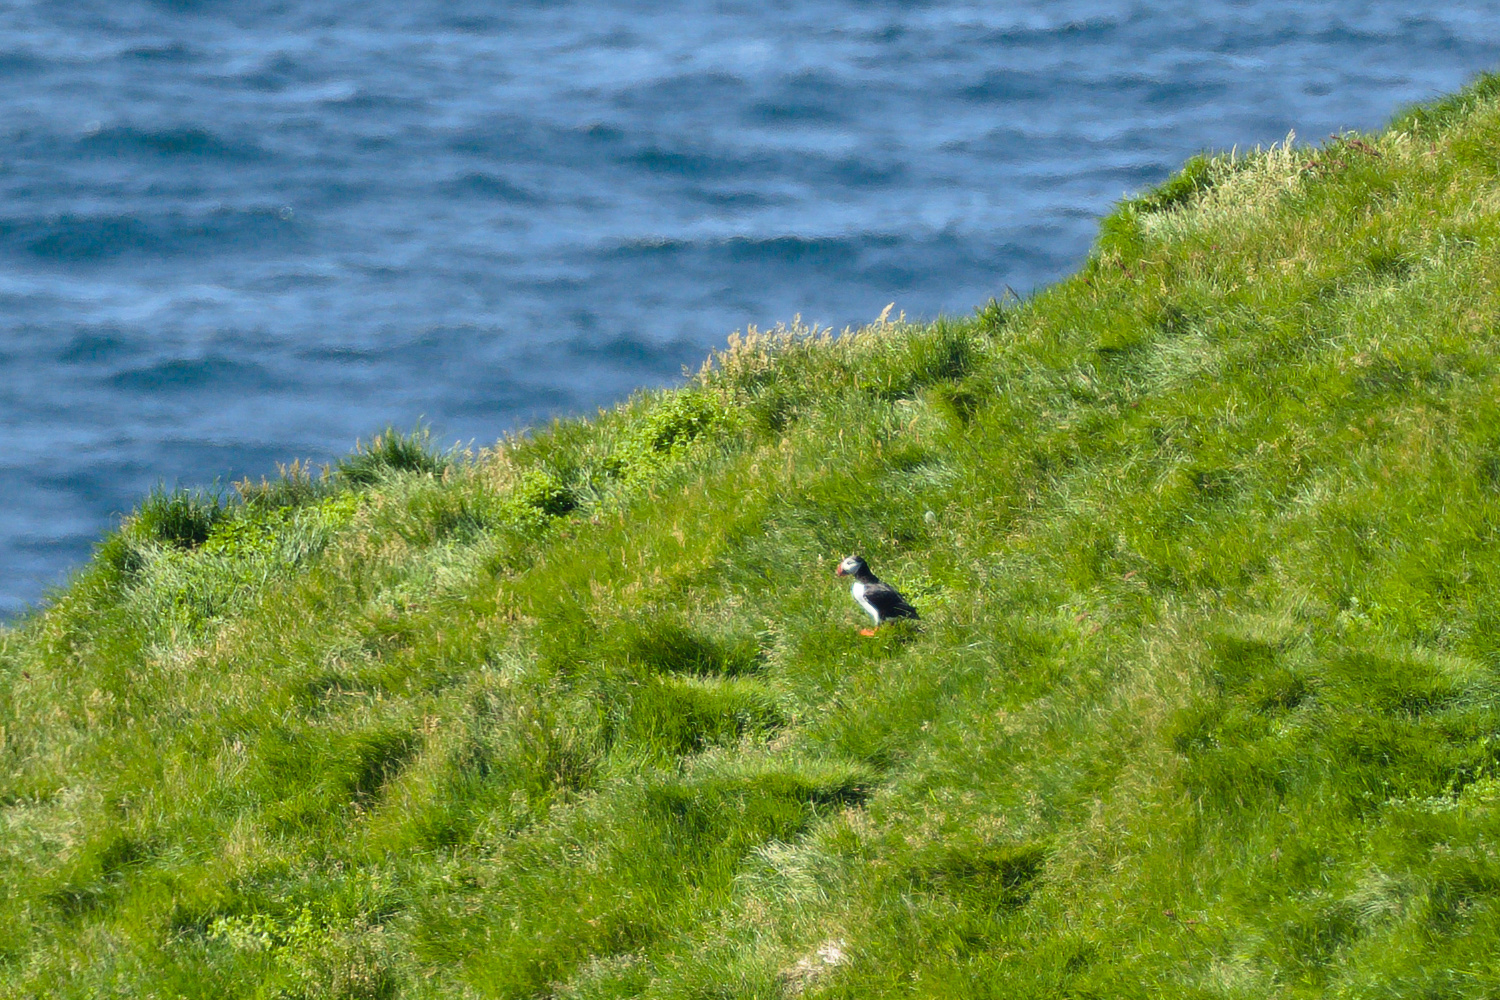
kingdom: Animalia
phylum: Chordata
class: Aves
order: Charadriiformes
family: Alcidae
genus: Fratercula
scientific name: Fratercula arctica
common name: Atlantic puffin
